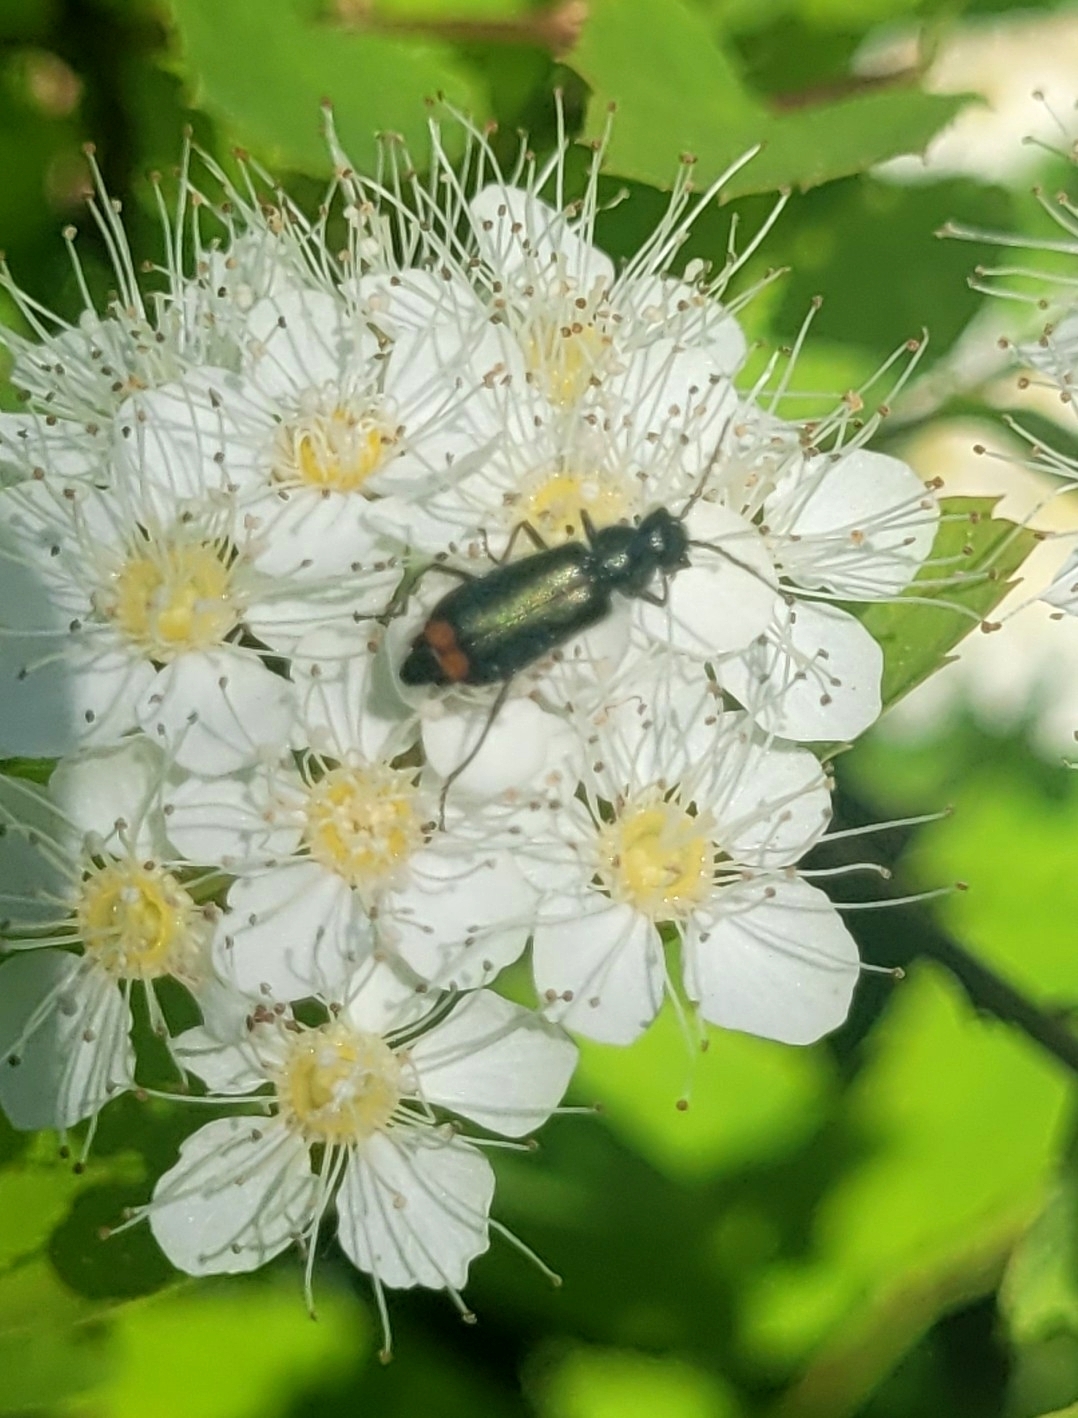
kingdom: Animalia
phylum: Arthropoda
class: Insecta
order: Coleoptera
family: Melyridae
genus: Malachius
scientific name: Malachius bipustulatus
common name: Malachite beetle
